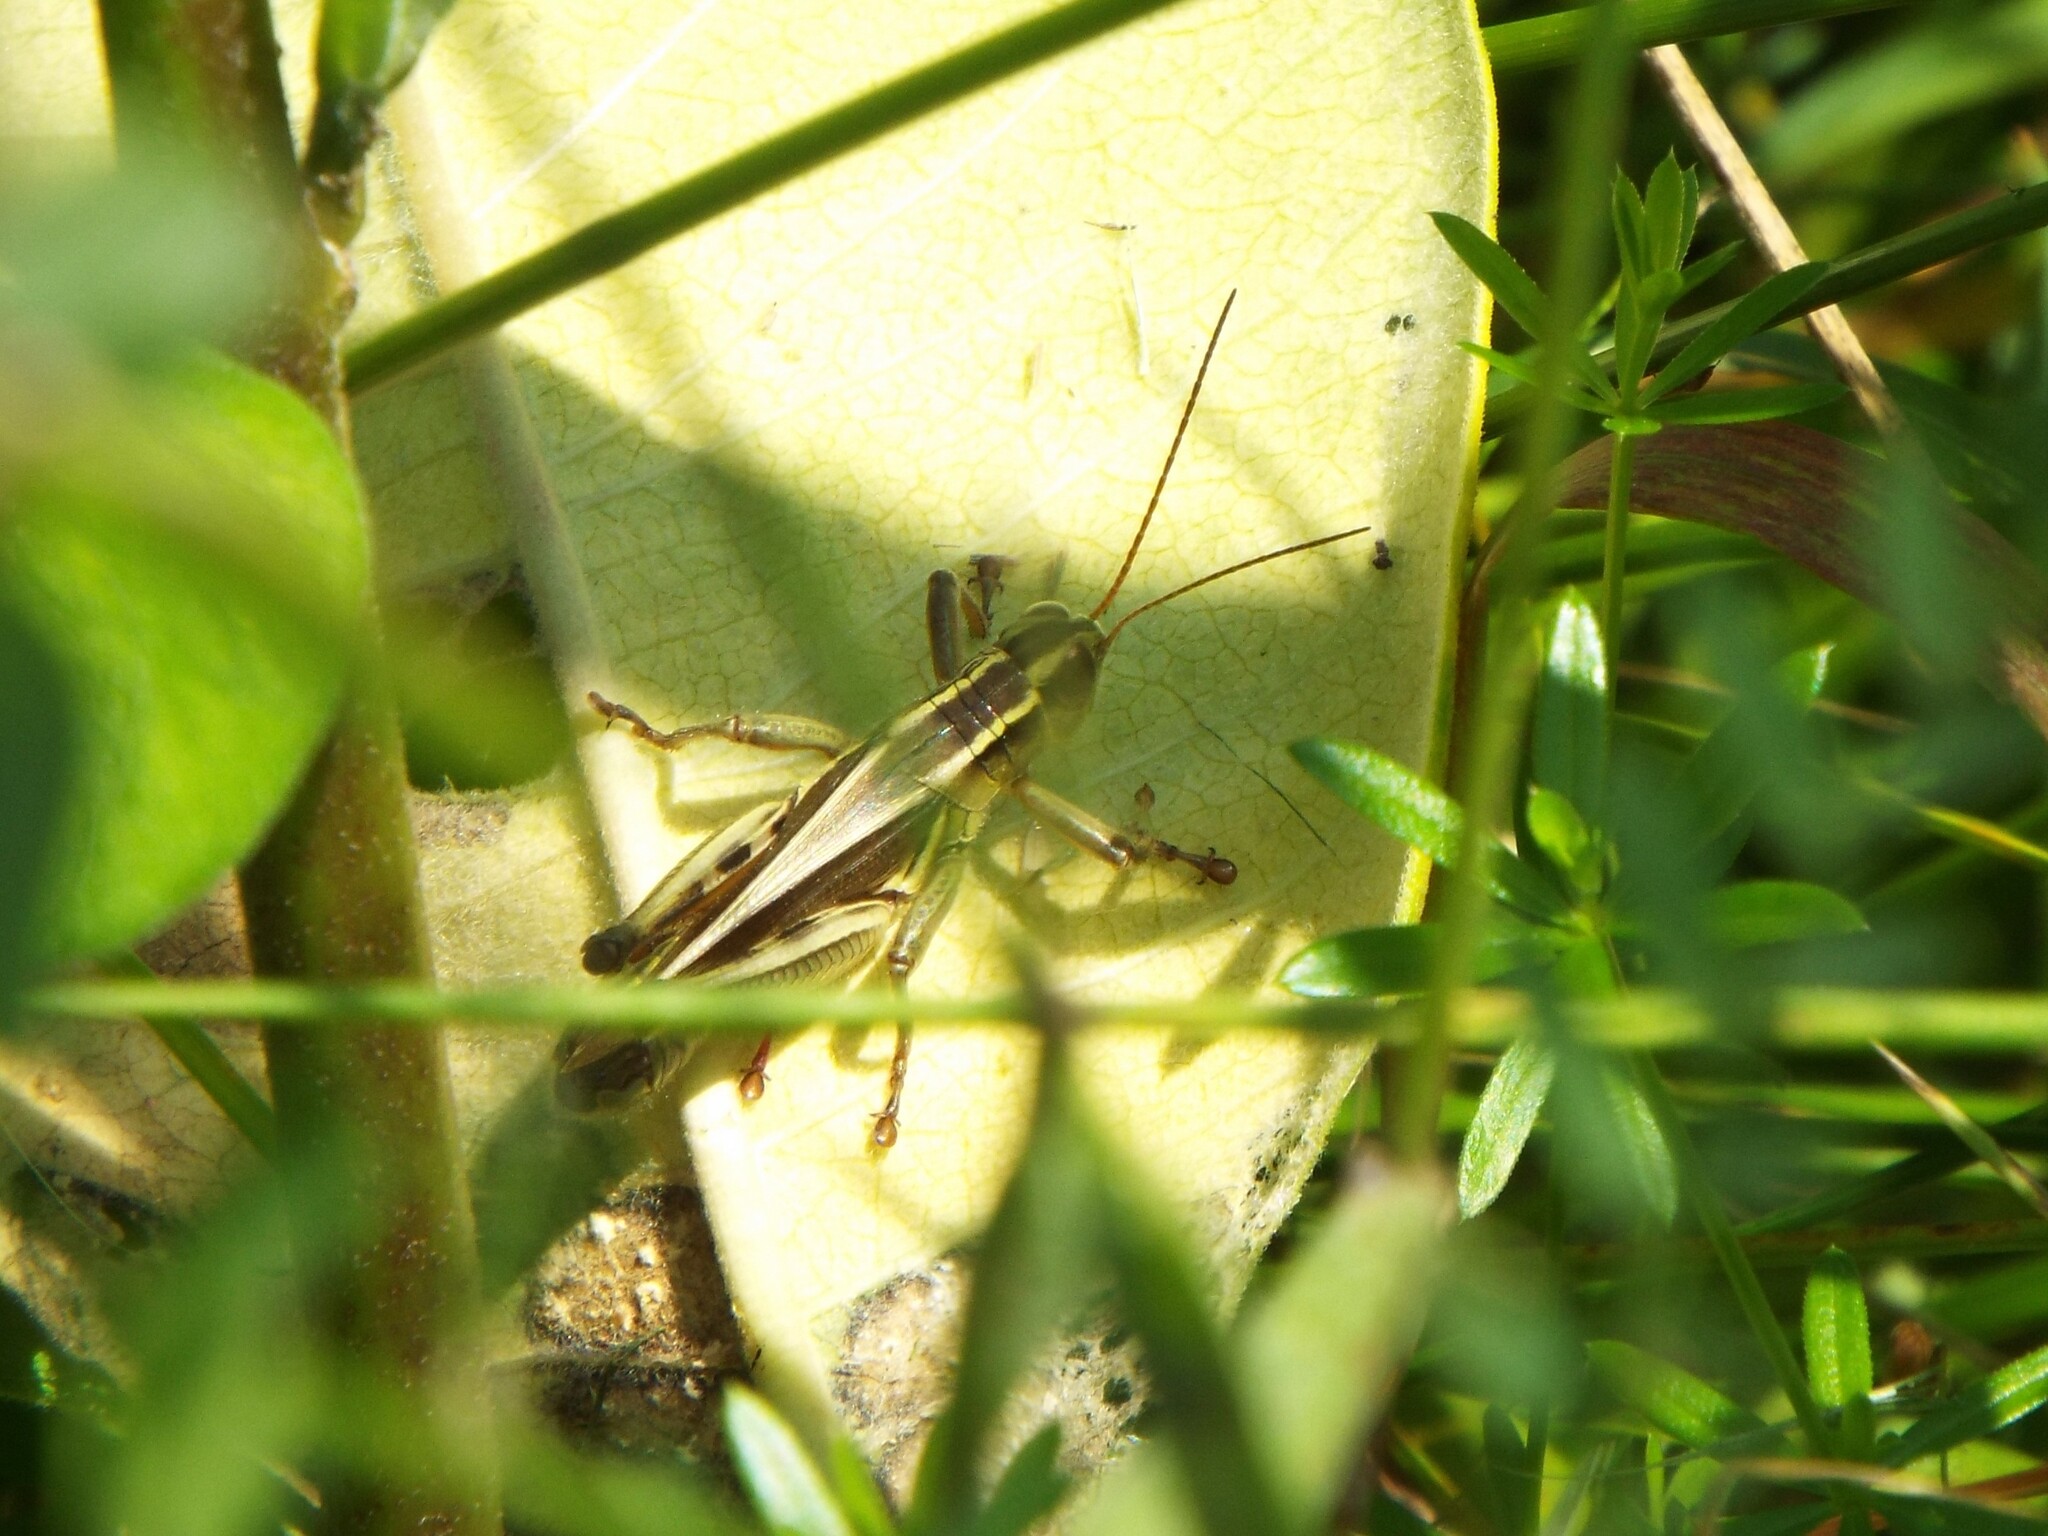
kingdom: Animalia
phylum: Arthropoda
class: Insecta
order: Orthoptera
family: Acrididae
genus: Melanoplus
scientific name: Melanoplus bivittatus
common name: Two-striped grasshopper
